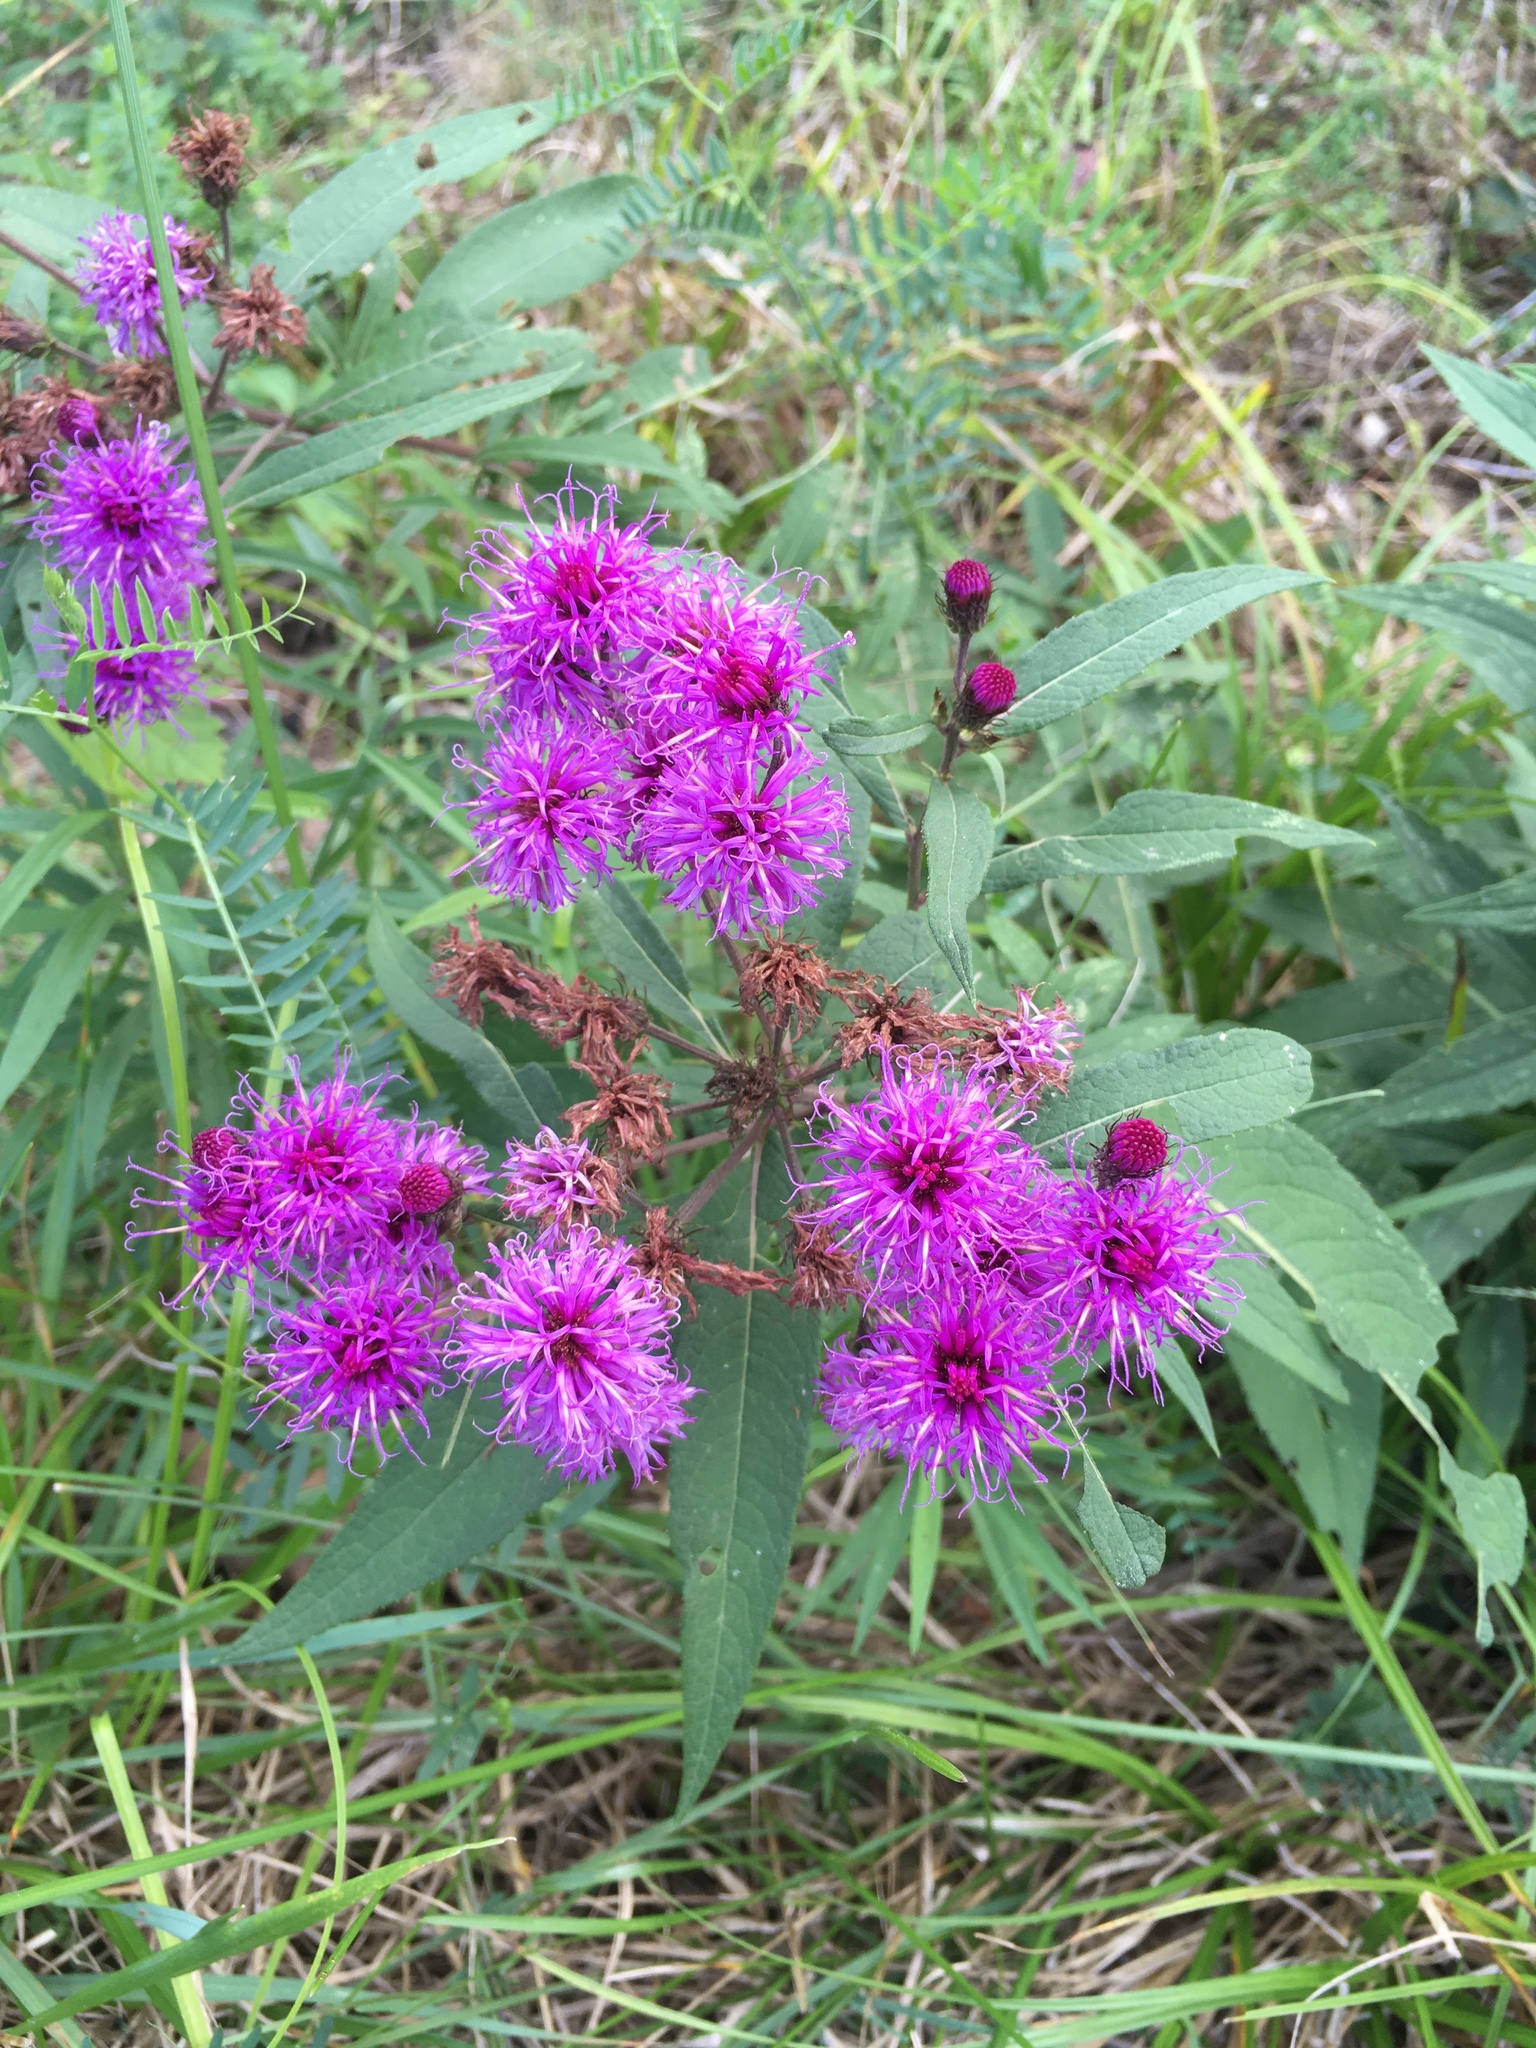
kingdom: Plantae
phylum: Tracheophyta
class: Magnoliopsida
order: Asterales
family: Asteraceae
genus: Vernonia
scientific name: Vernonia noveboracensis
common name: New york ironweed
